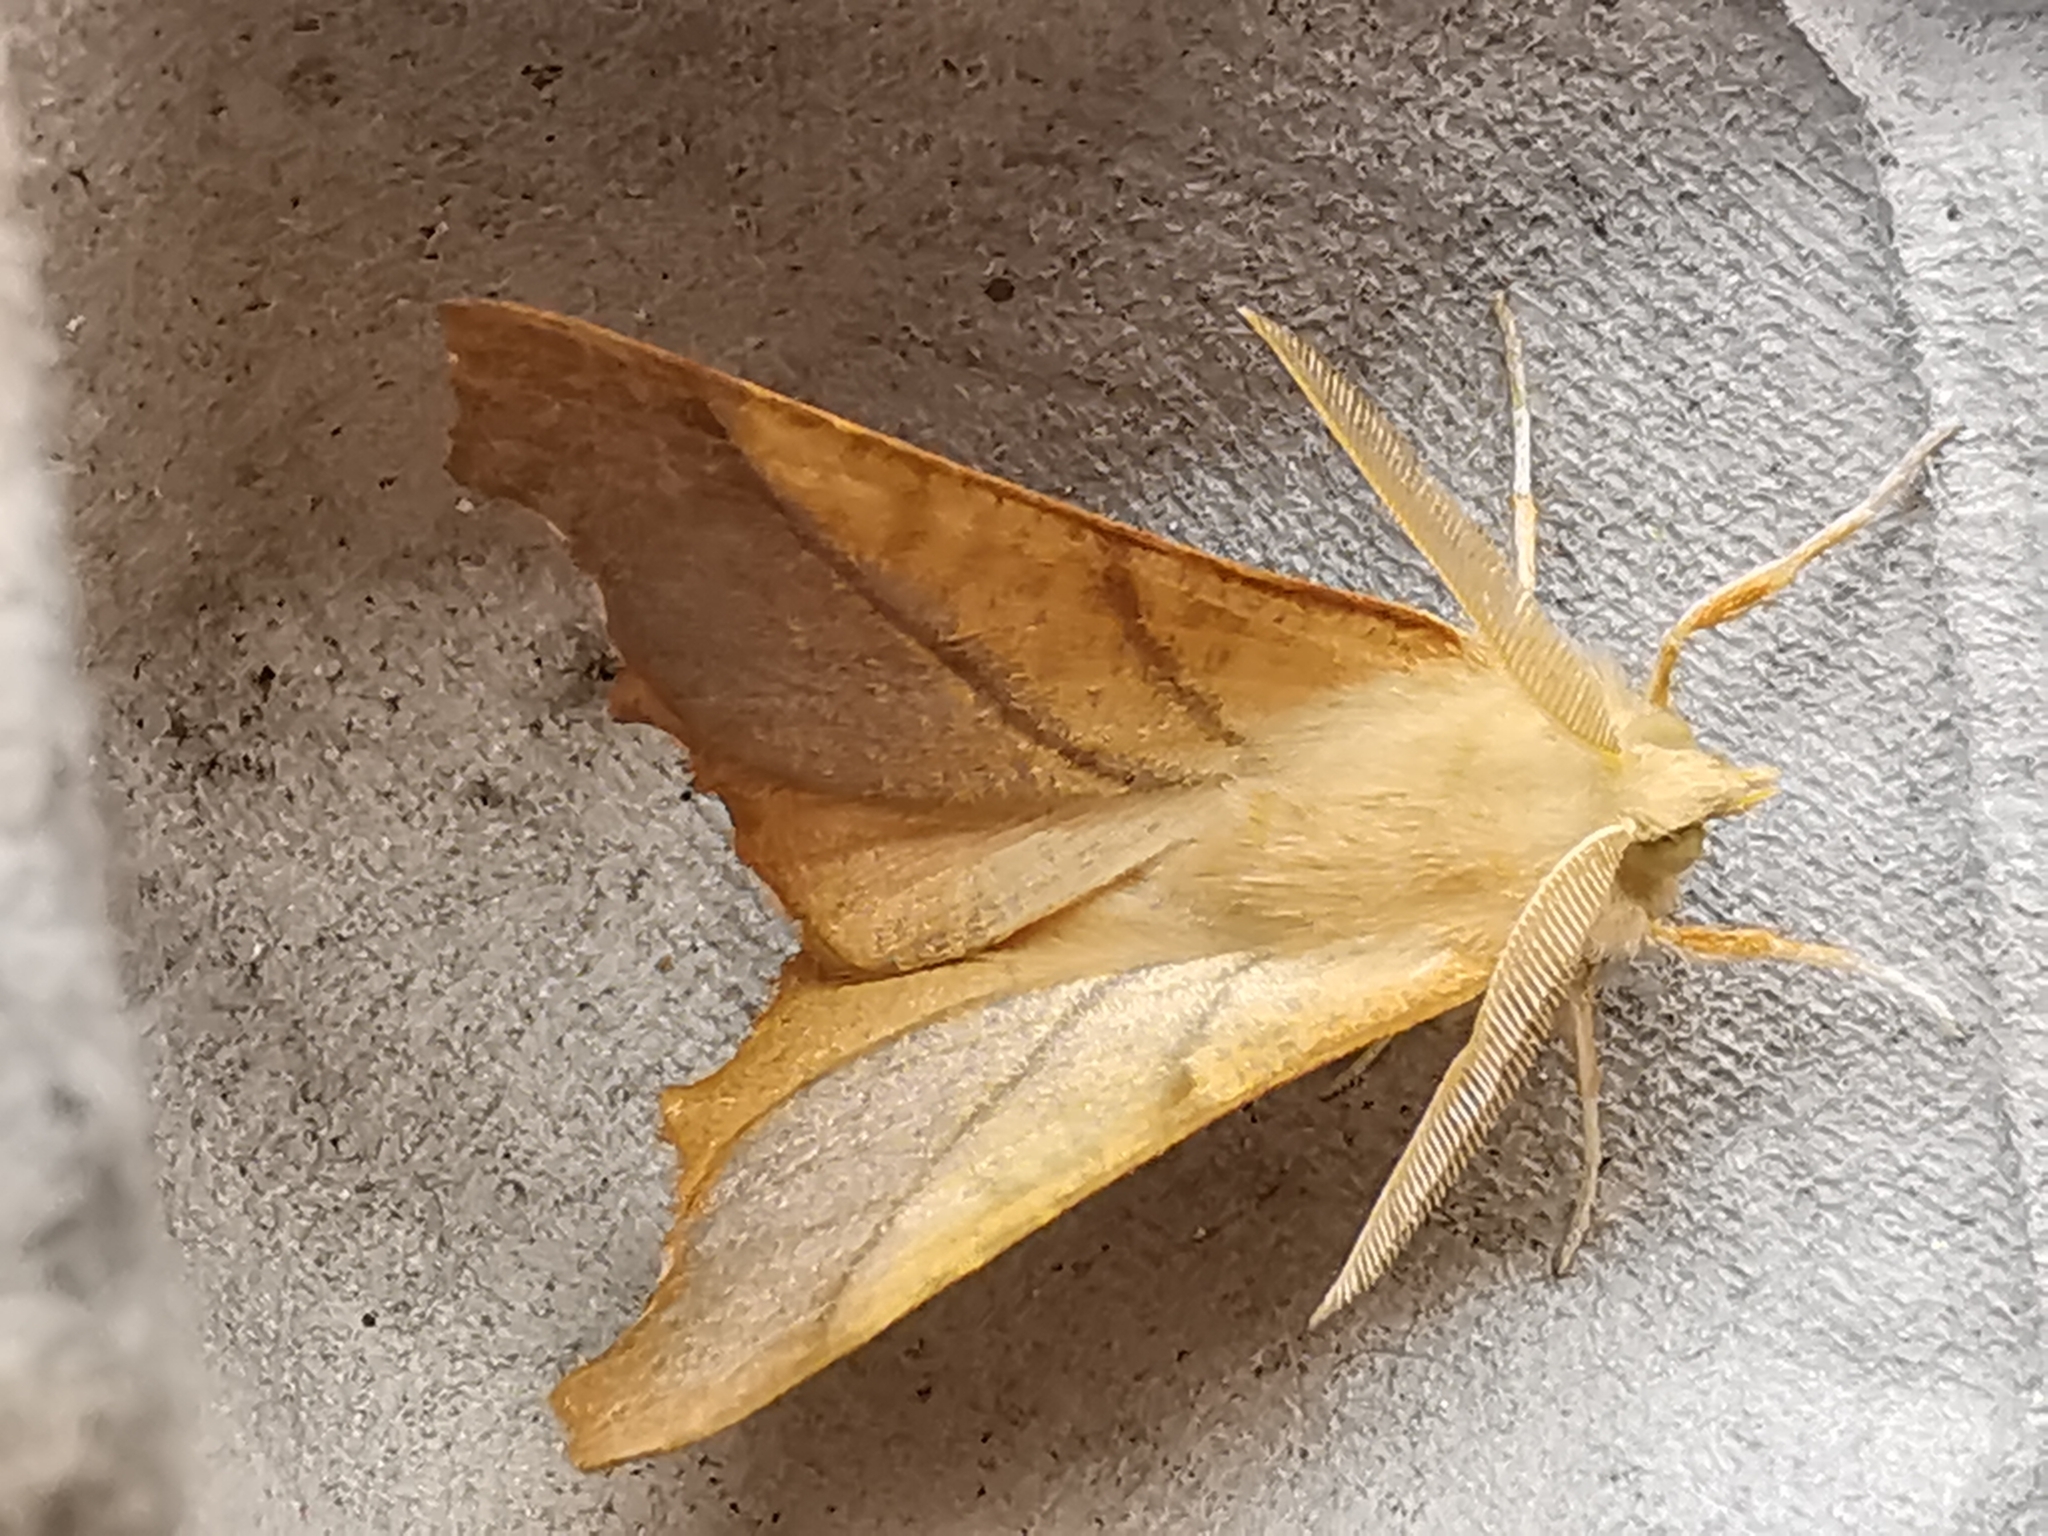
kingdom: Animalia
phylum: Arthropoda
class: Insecta
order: Lepidoptera
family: Geometridae
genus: Ennomos
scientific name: Ennomos fuscantaria
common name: Dusky thorn
